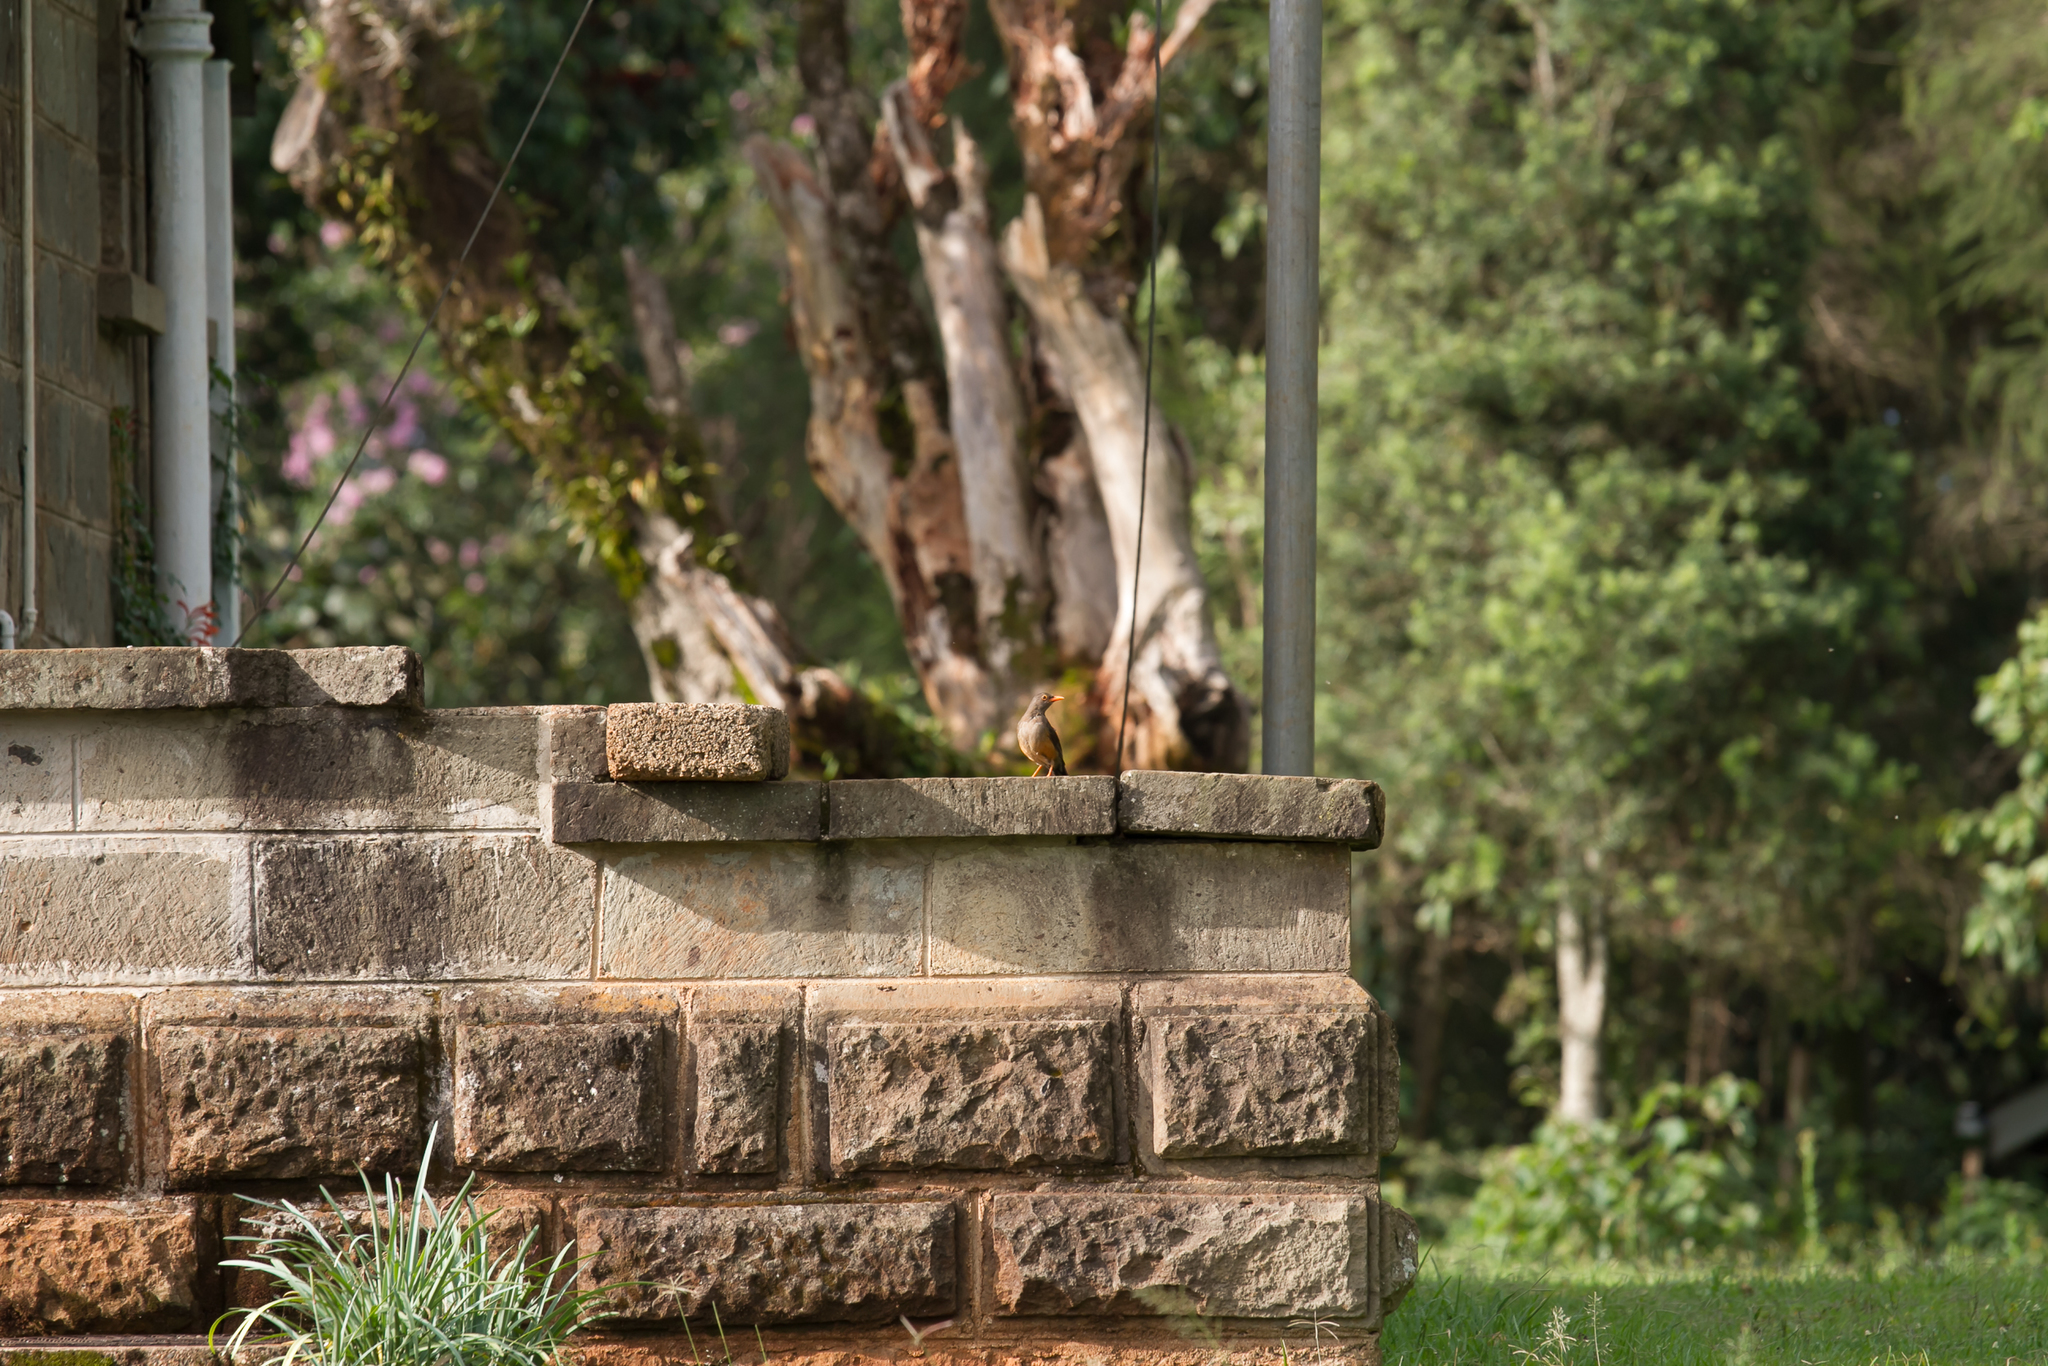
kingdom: Animalia
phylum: Chordata
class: Aves
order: Passeriformes
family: Turdidae
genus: Turdus
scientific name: Turdus abyssinicus
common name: Abyssinian thrush
